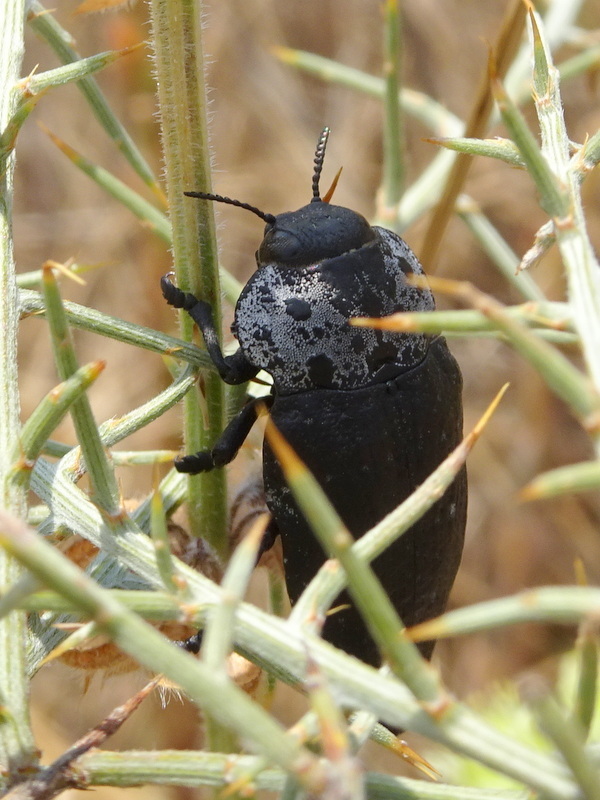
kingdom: Animalia
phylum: Arthropoda
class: Insecta
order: Coleoptera
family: Buprestidae
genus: Capnodis
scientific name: Capnodis tenebrionis
